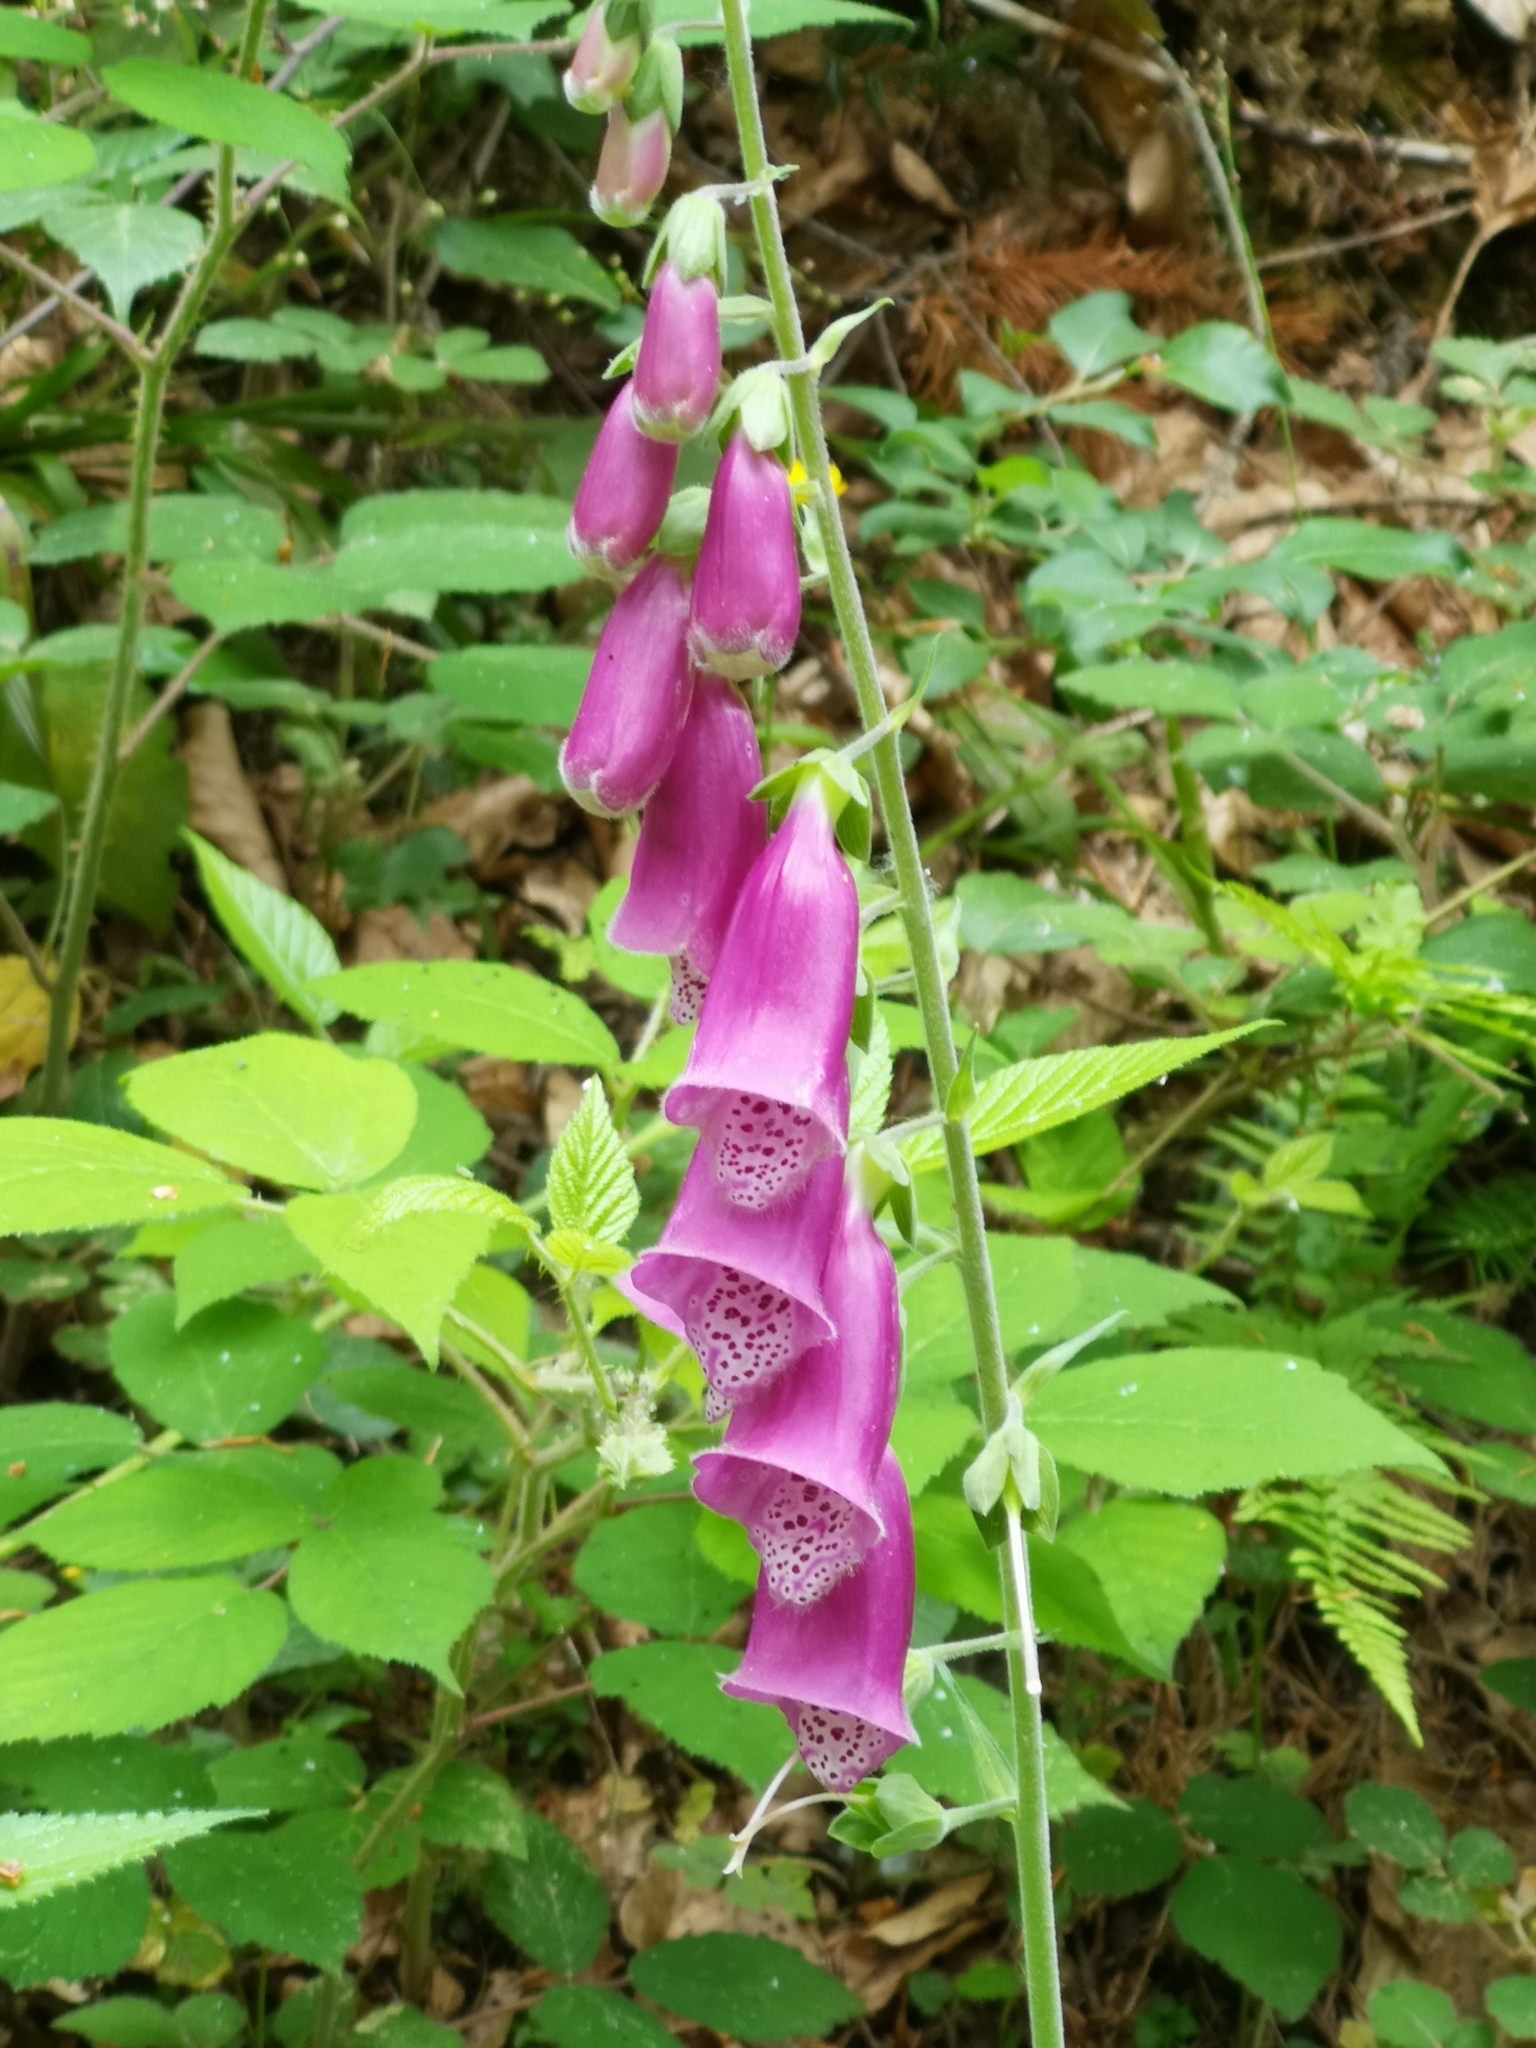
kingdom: Plantae
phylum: Tracheophyta
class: Magnoliopsida
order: Lamiales
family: Plantaginaceae
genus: Digitalis
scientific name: Digitalis purpurea
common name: Foxglove
